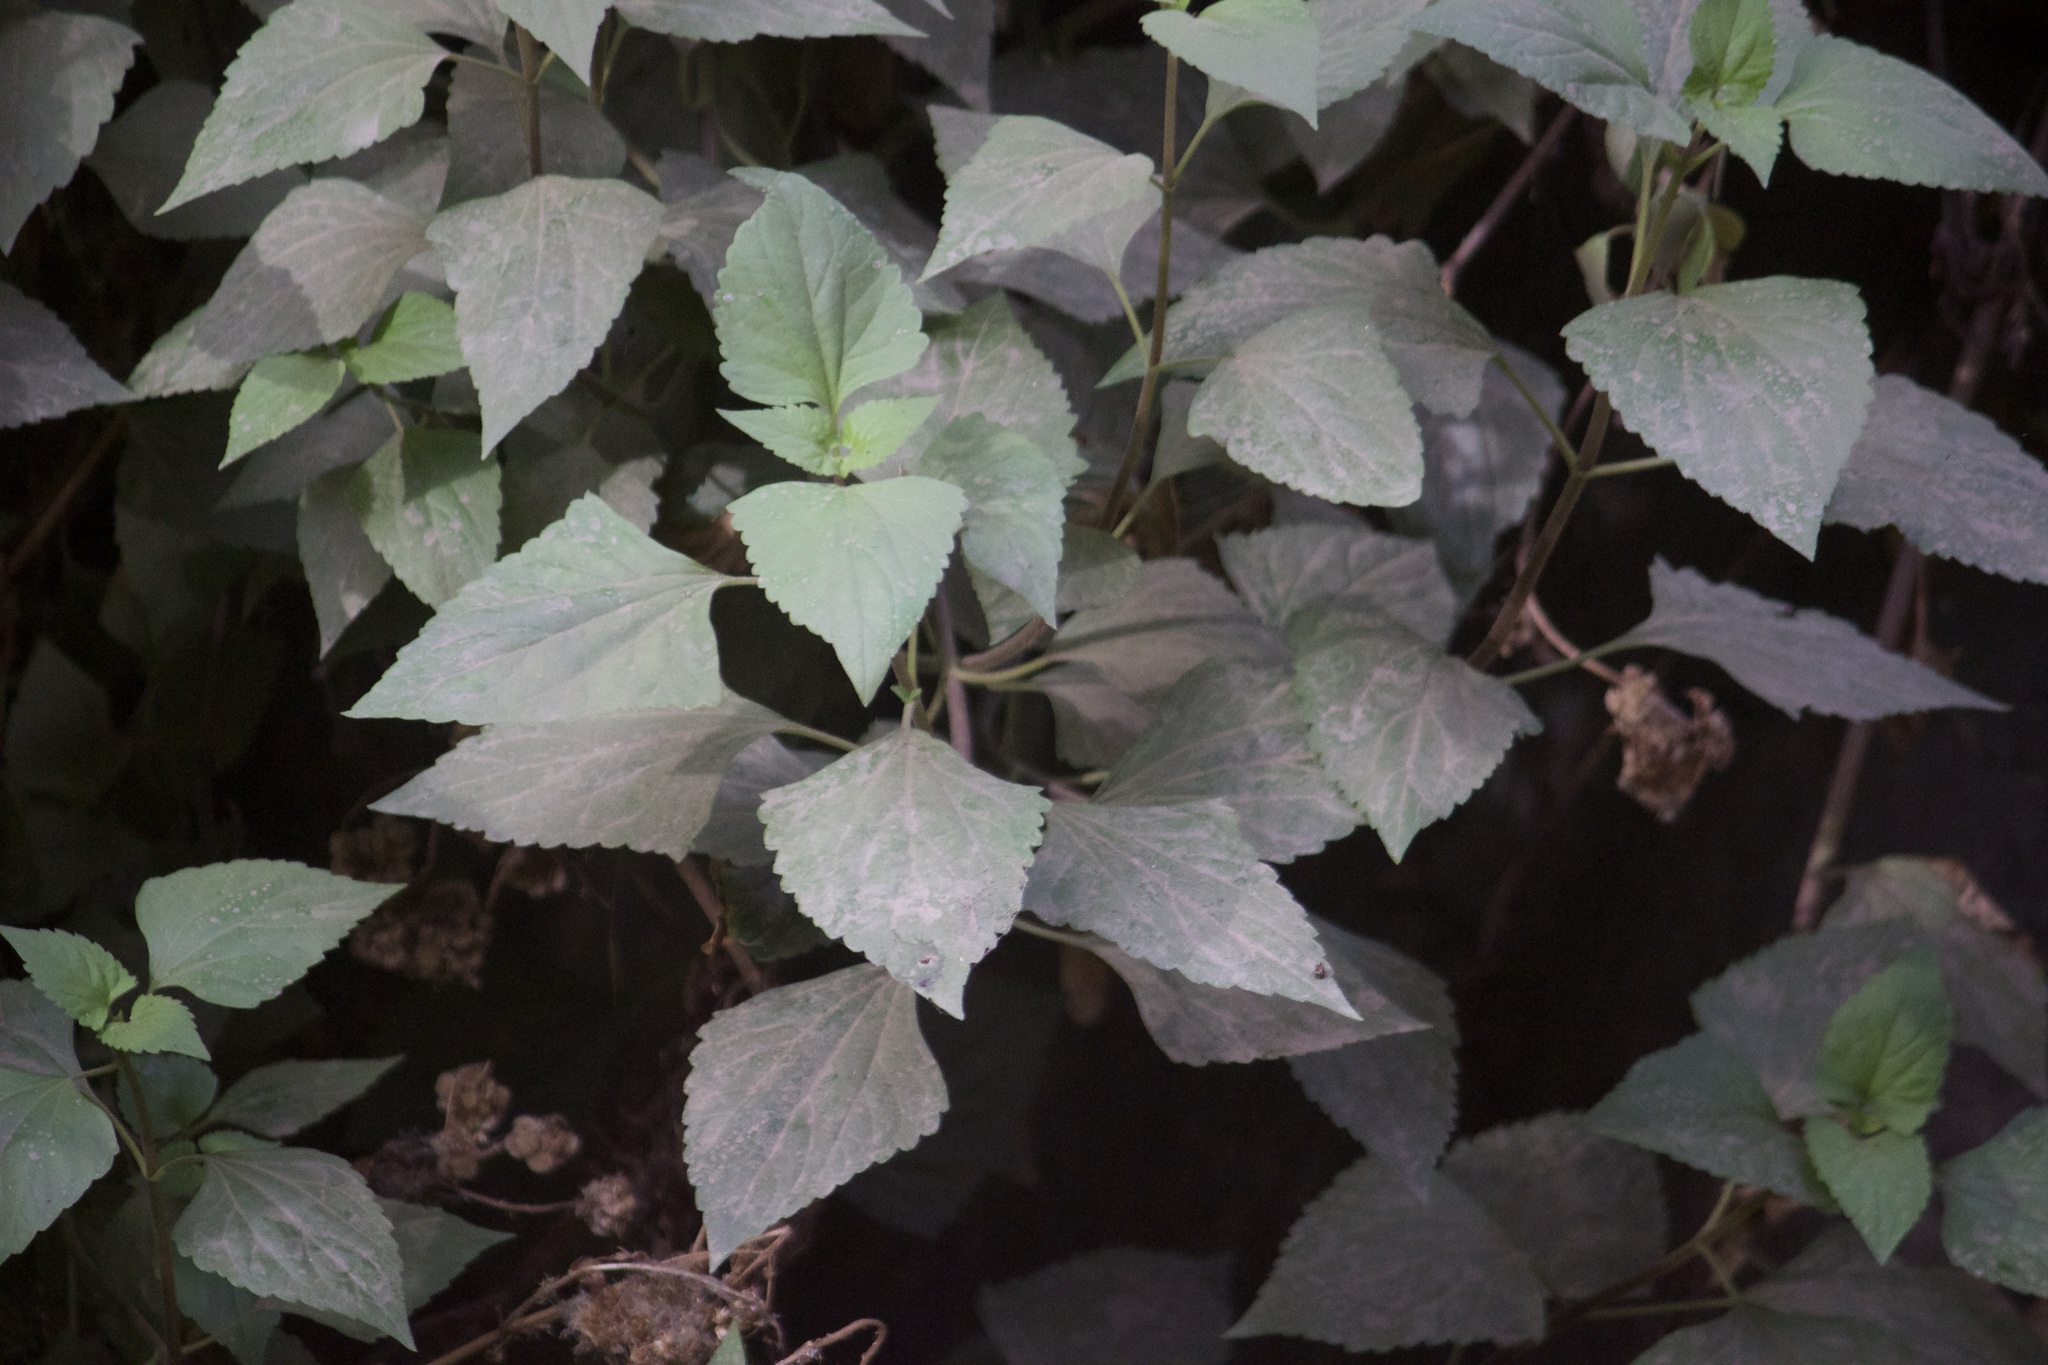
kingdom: Plantae
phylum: Tracheophyta
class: Magnoliopsida
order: Asterales
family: Asteraceae
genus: Ageratina
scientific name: Ageratina adenophora
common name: Sticky snakeroot
